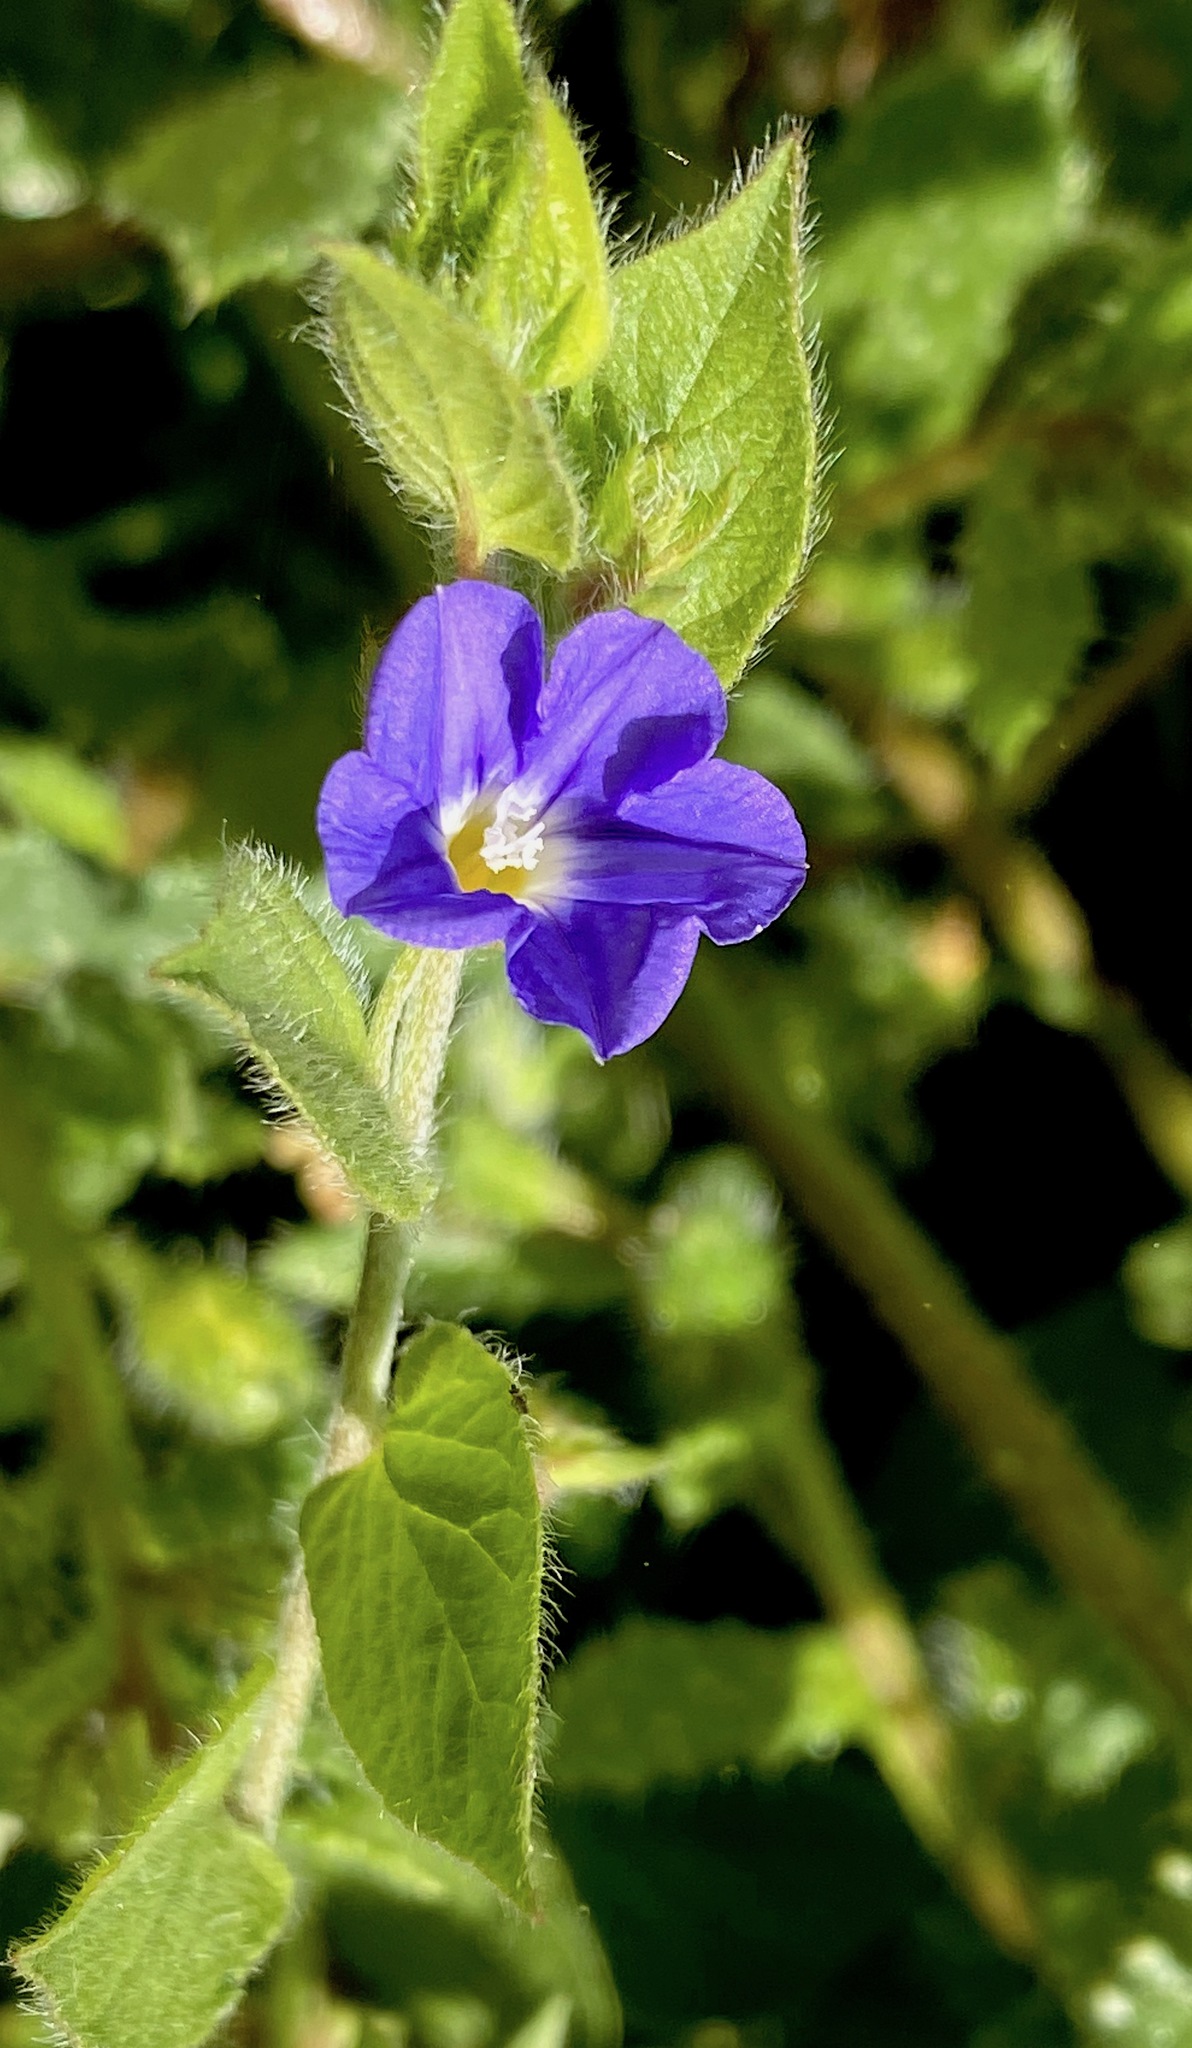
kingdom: Plantae
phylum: Tracheophyta
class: Magnoliopsida
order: Solanales
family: Convolvulaceae
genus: Convolvulus
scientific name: Convolvulus siculus
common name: Small blue-convolvulus
